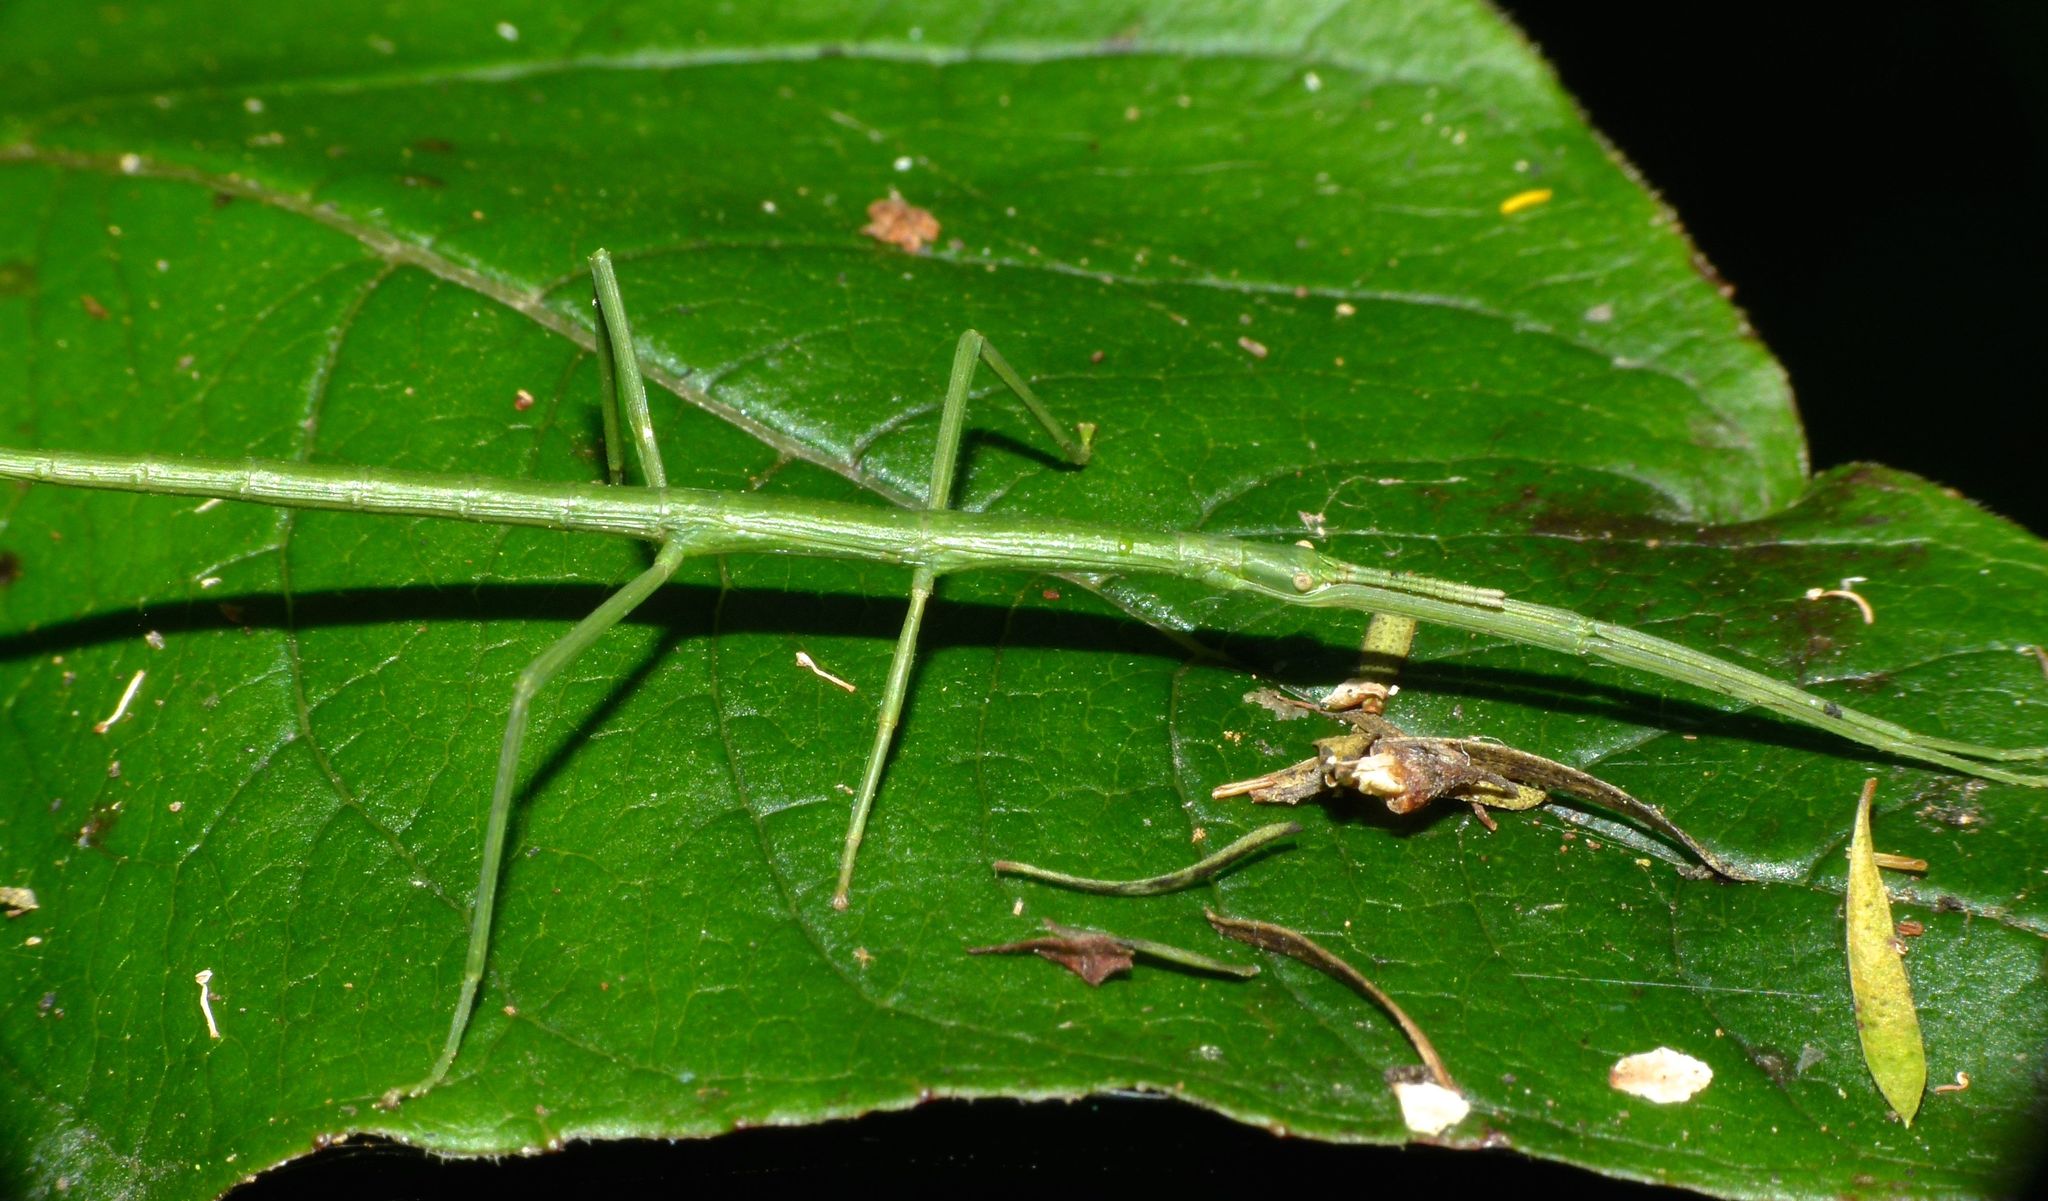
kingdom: Animalia
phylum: Arthropoda
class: Insecta
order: Phasmida
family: Phasmatidae
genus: Clitarchus
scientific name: Clitarchus hookeri
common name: Smooth stick insect
